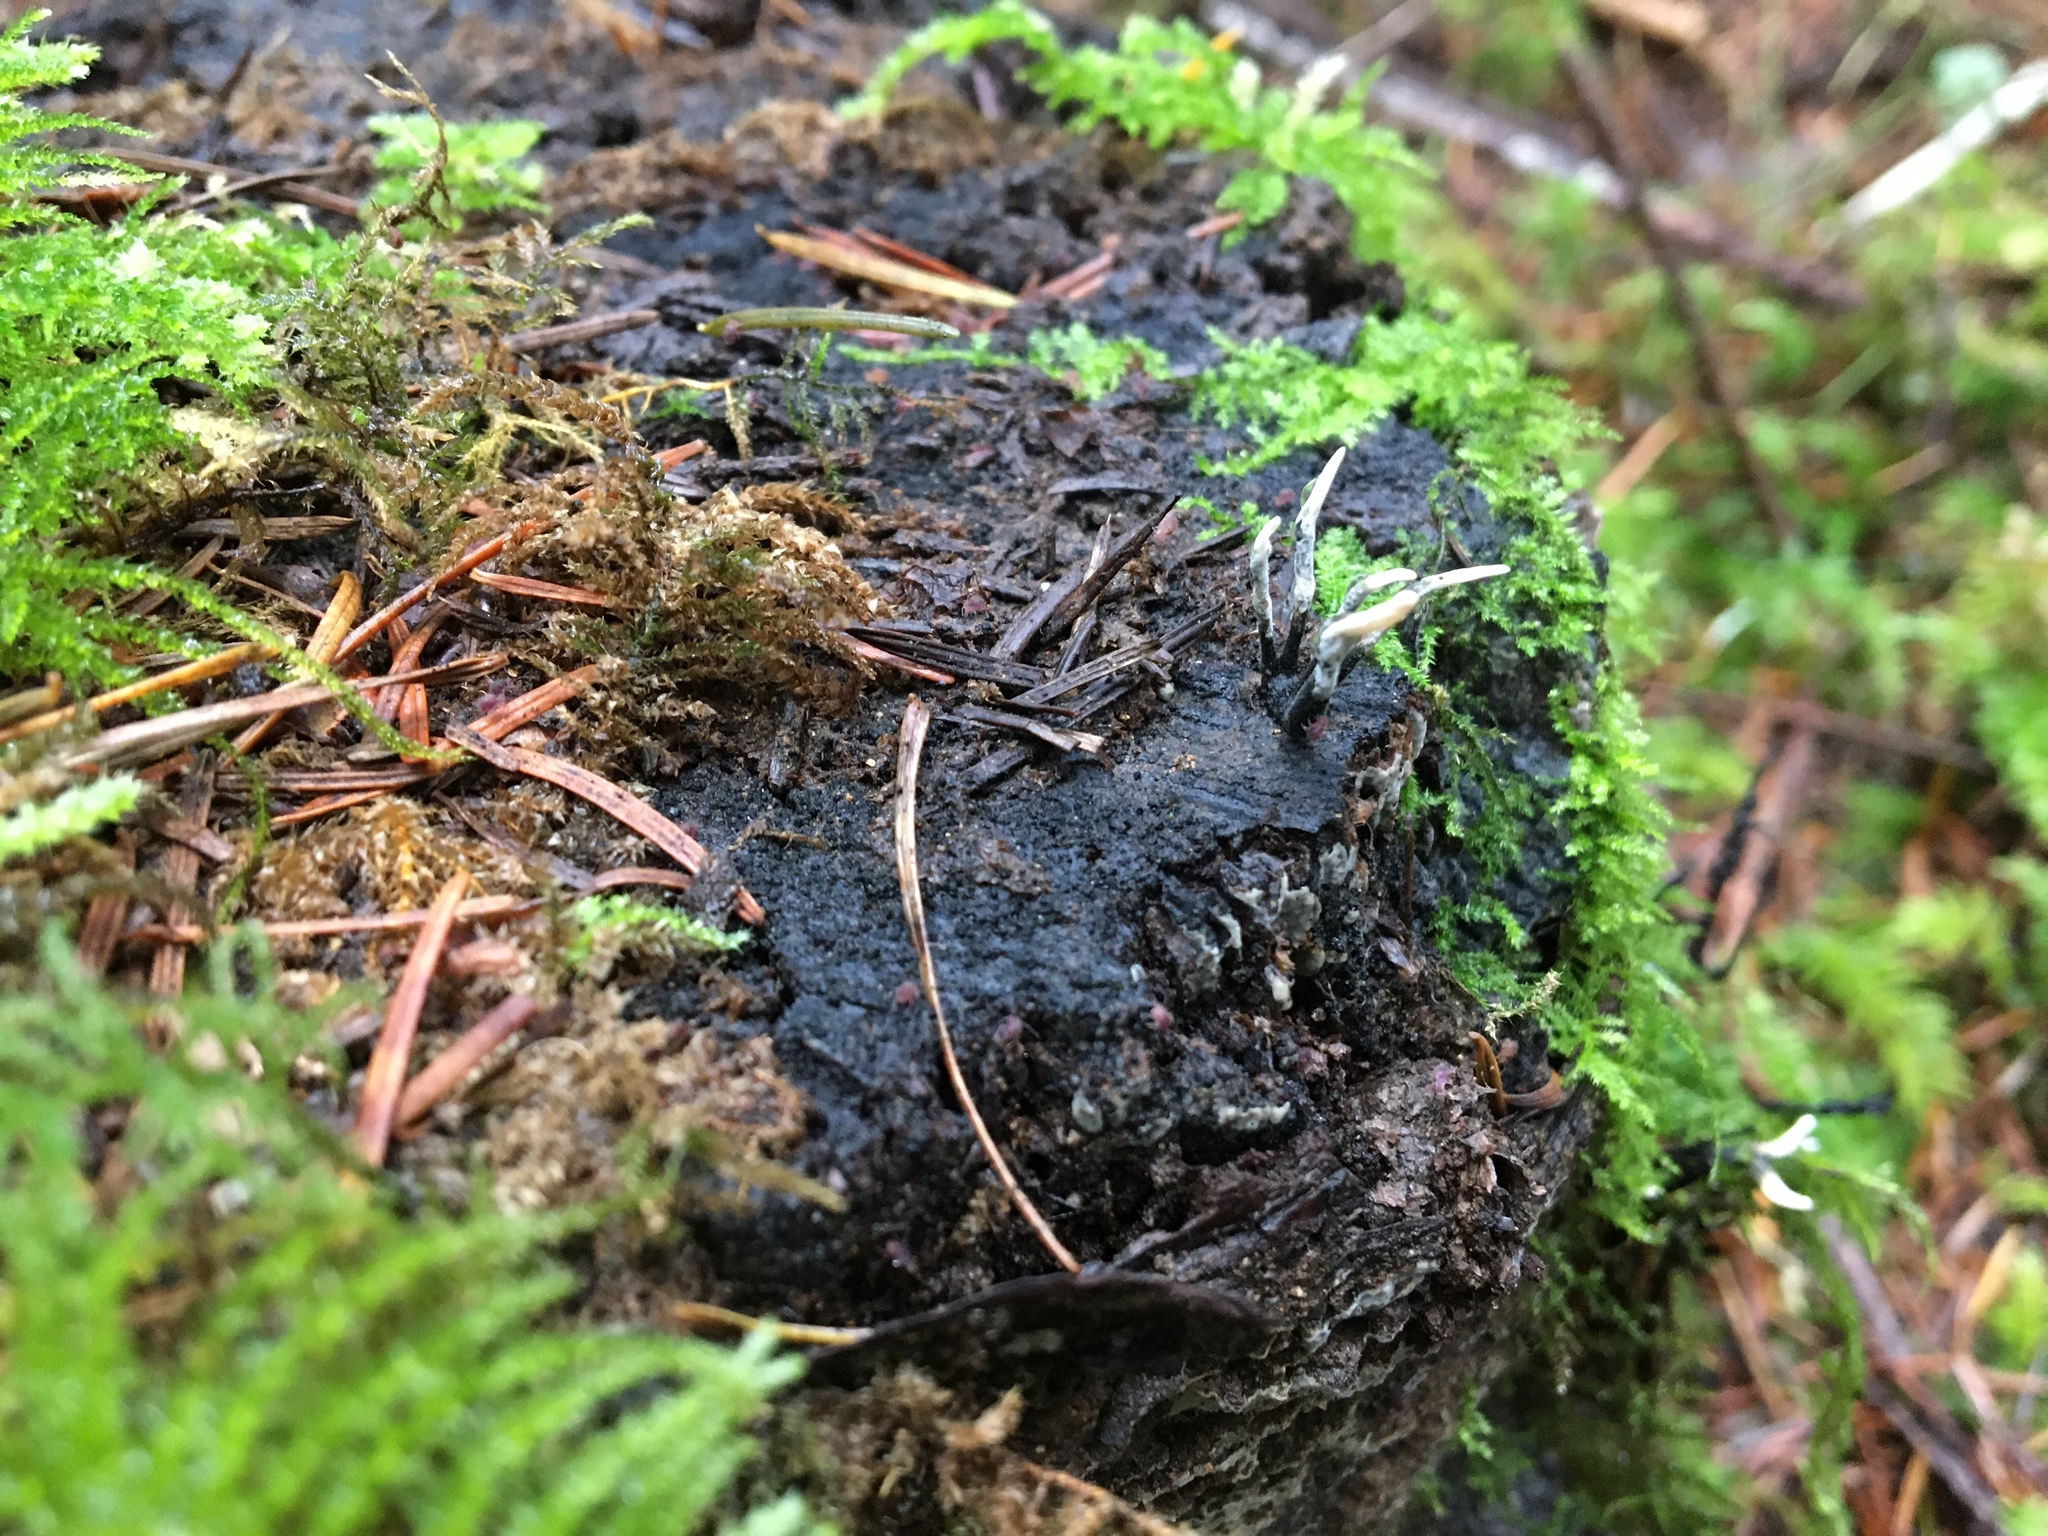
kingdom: Fungi
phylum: Ascomycota
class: Sordariomycetes
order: Xylariales
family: Xylariaceae
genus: Xylaria
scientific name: Xylaria hypoxylon
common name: Candle-snuff fungus
